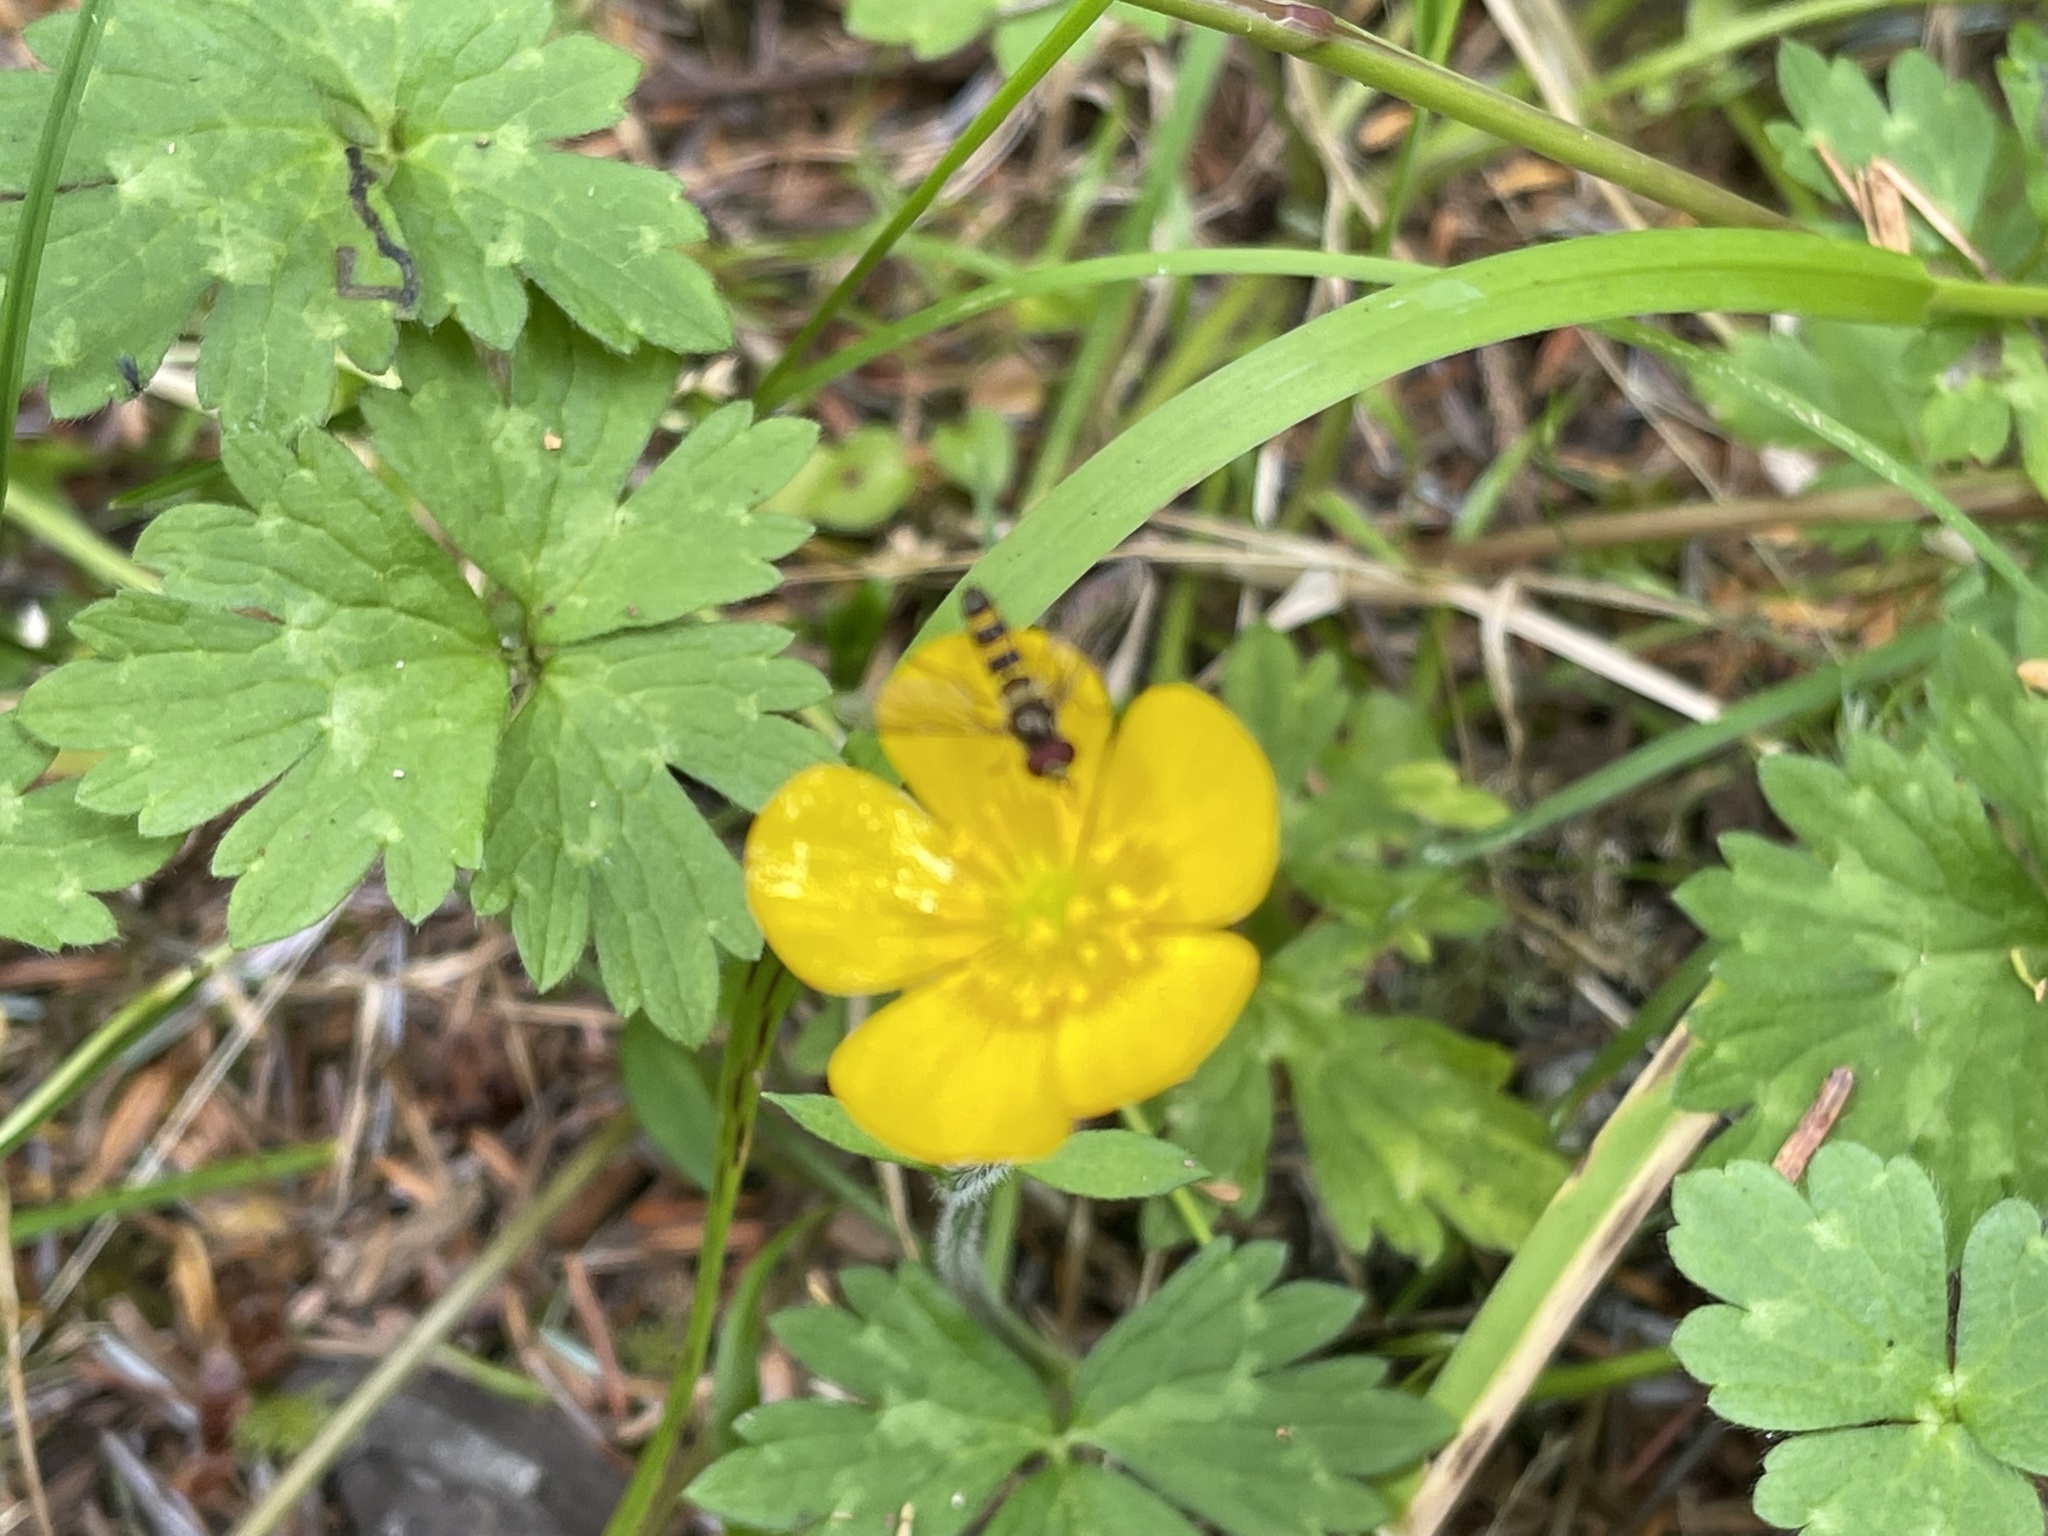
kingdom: Plantae
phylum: Tracheophyta
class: Magnoliopsida
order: Ranunculales
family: Ranunculaceae
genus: Ranunculus
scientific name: Ranunculus repens
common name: Creeping buttercup
